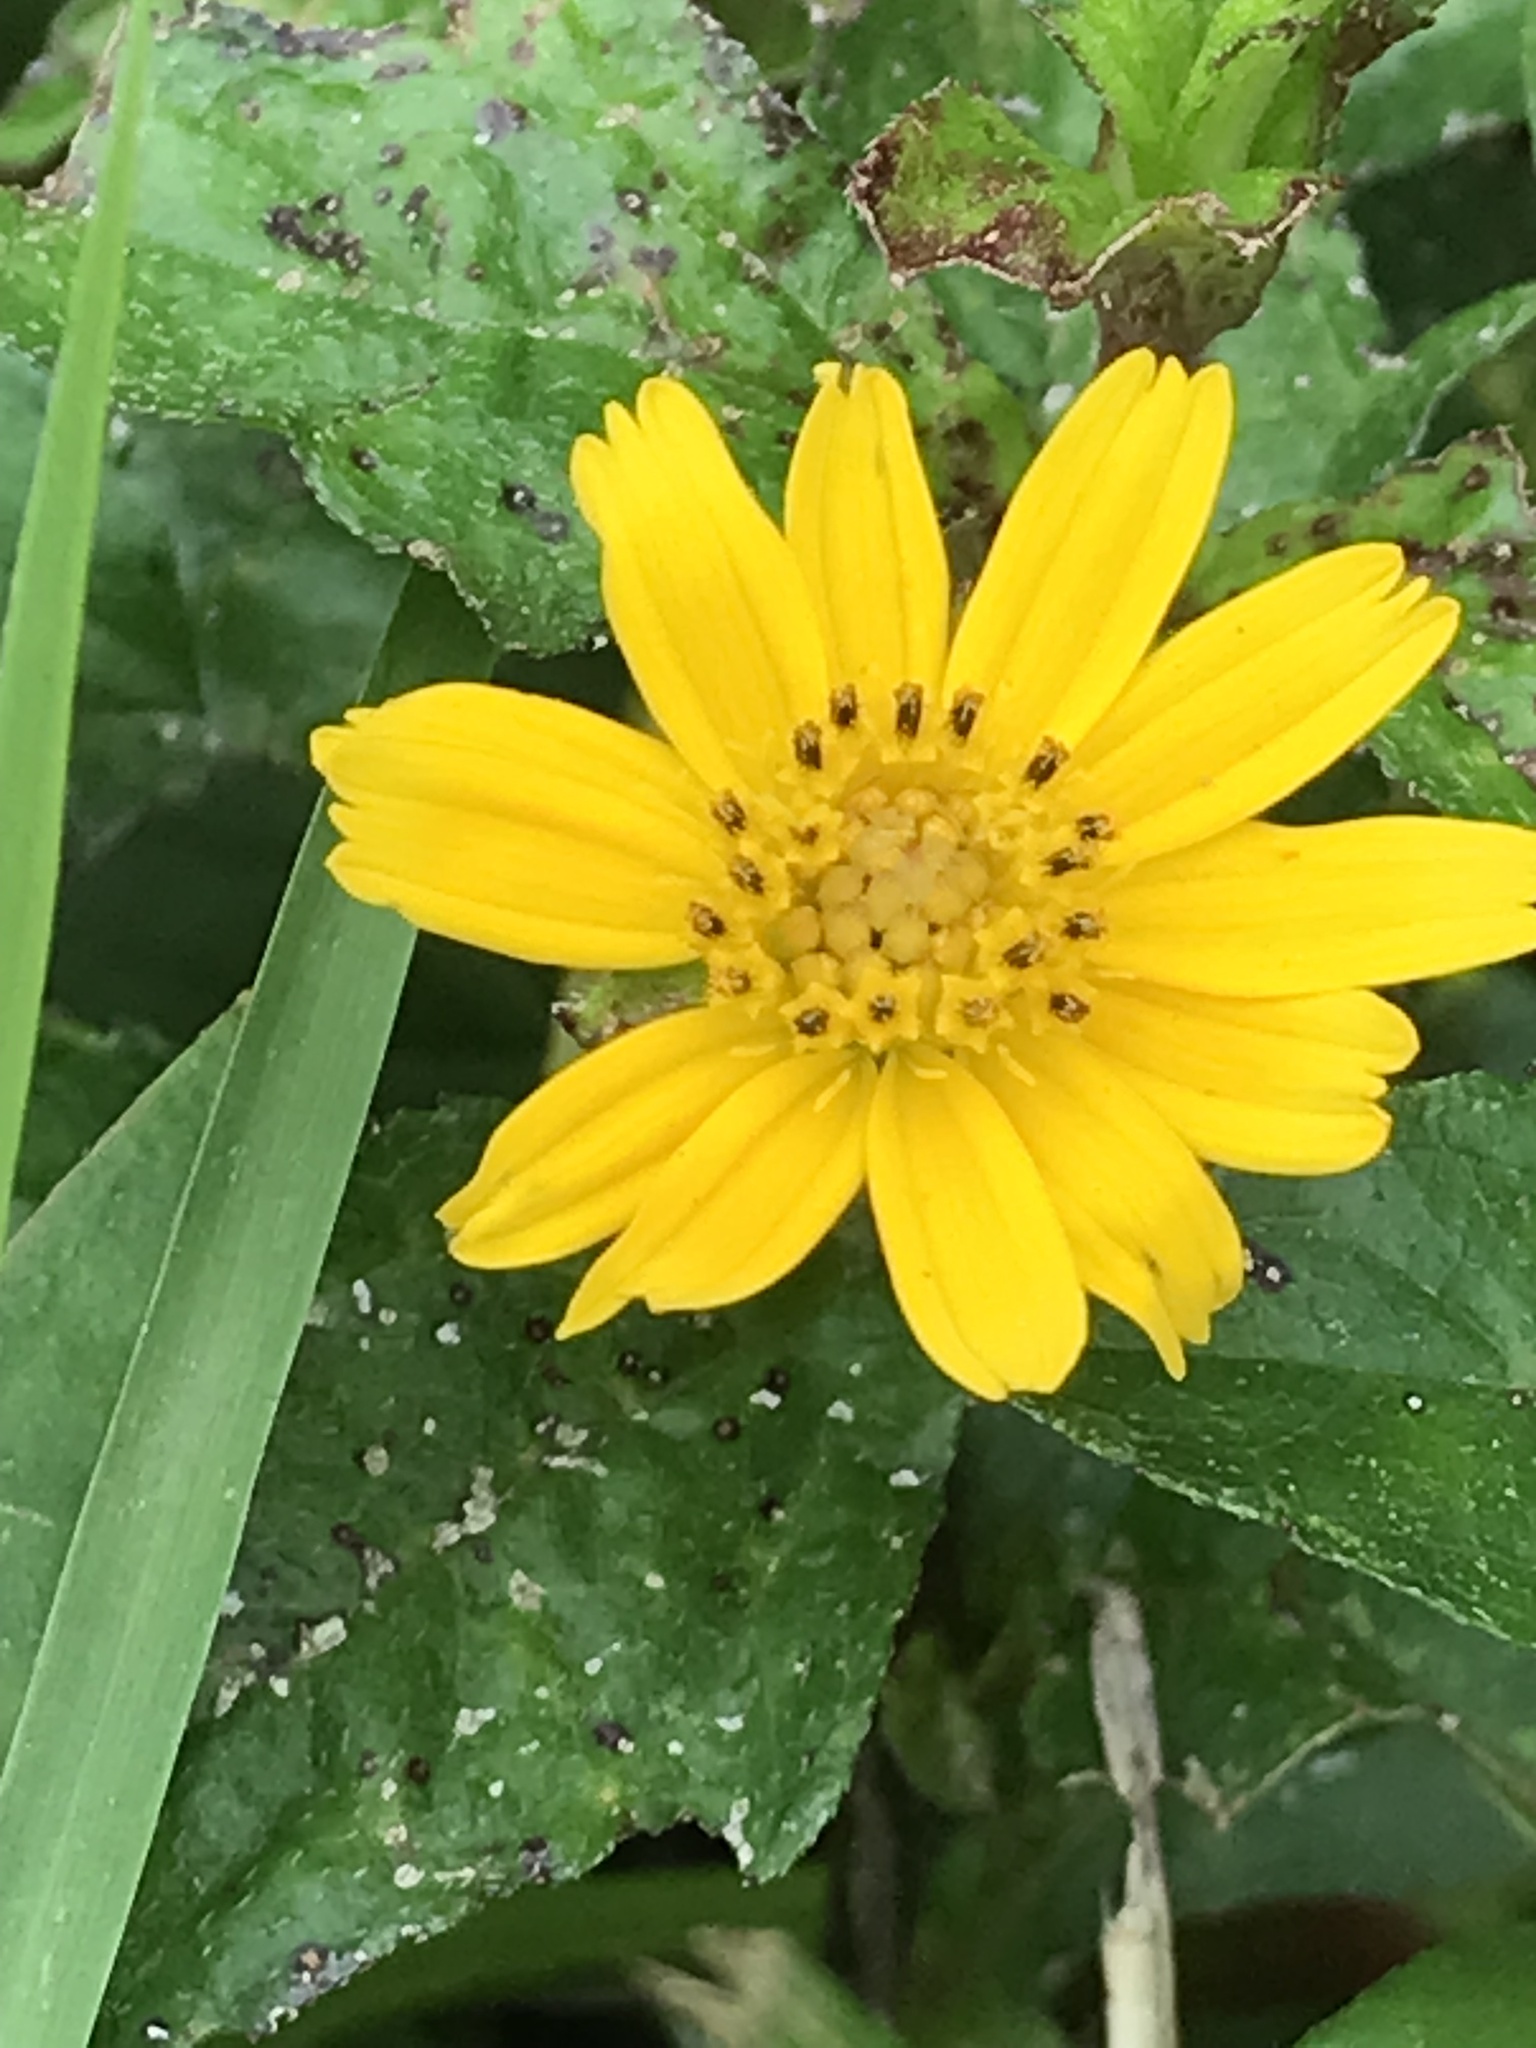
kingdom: Plantae
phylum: Tracheophyta
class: Magnoliopsida
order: Asterales
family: Asteraceae
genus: Sphagneticola
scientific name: Sphagneticola trilobata
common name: Bay biscayne creeping-oxeye
